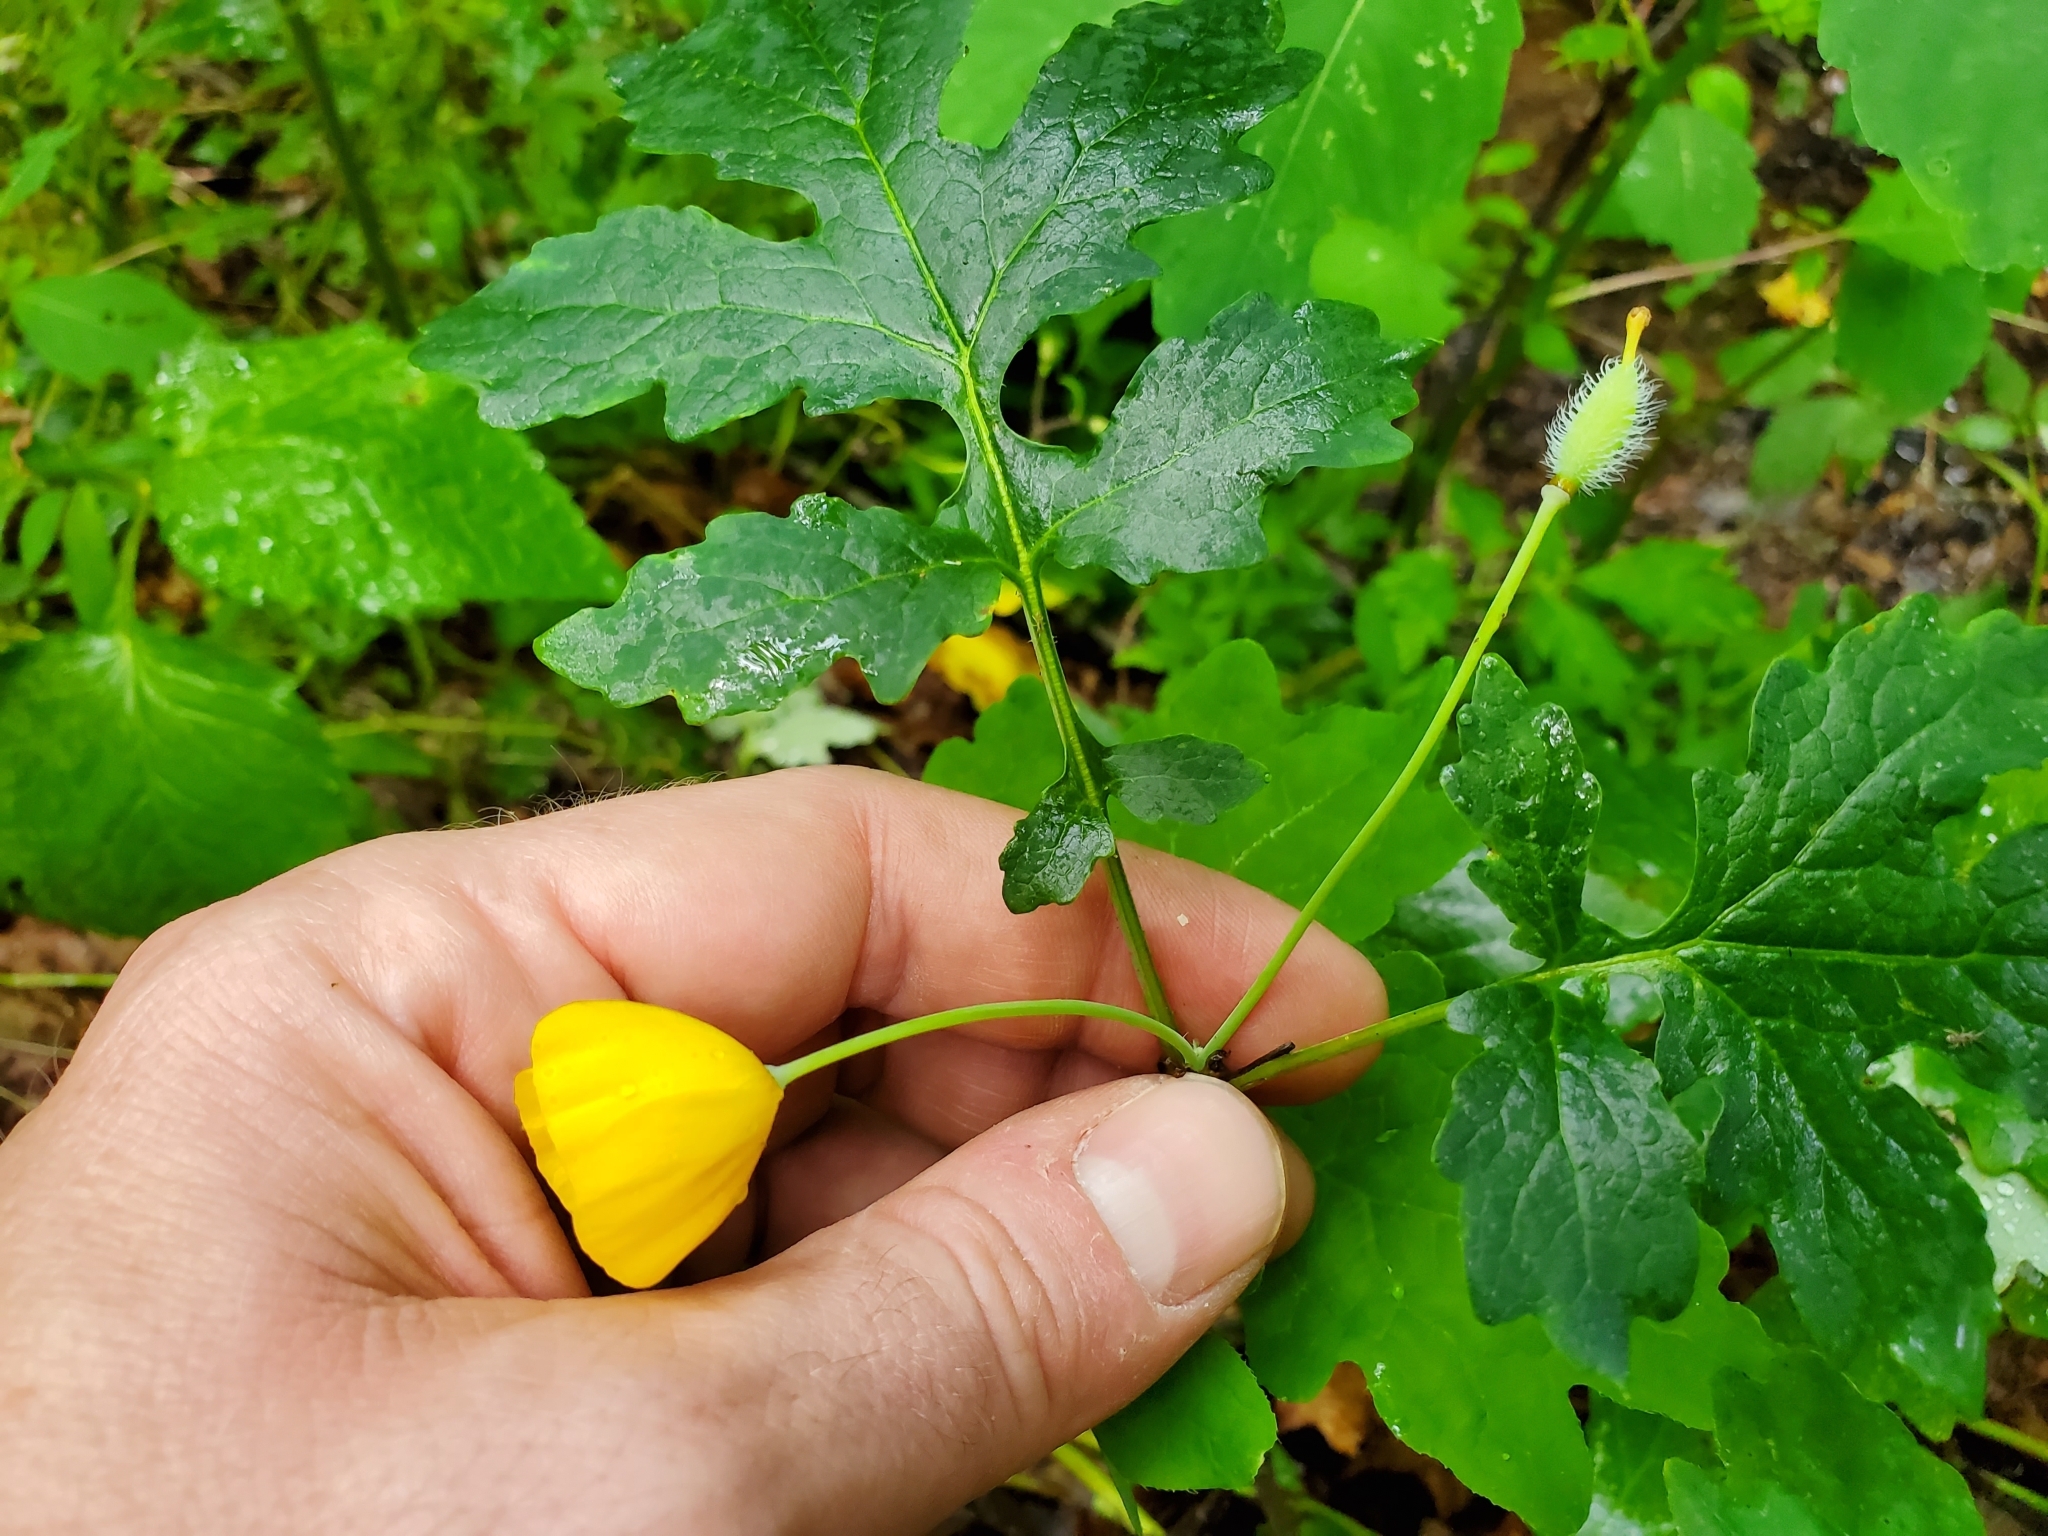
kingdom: Plantae
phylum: Tracheophyta
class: Magnoliopsida
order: Ranunculales
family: Papaveraceae
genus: Stylophorum
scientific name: Stylophorum diphyllum
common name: Celandine poppy
